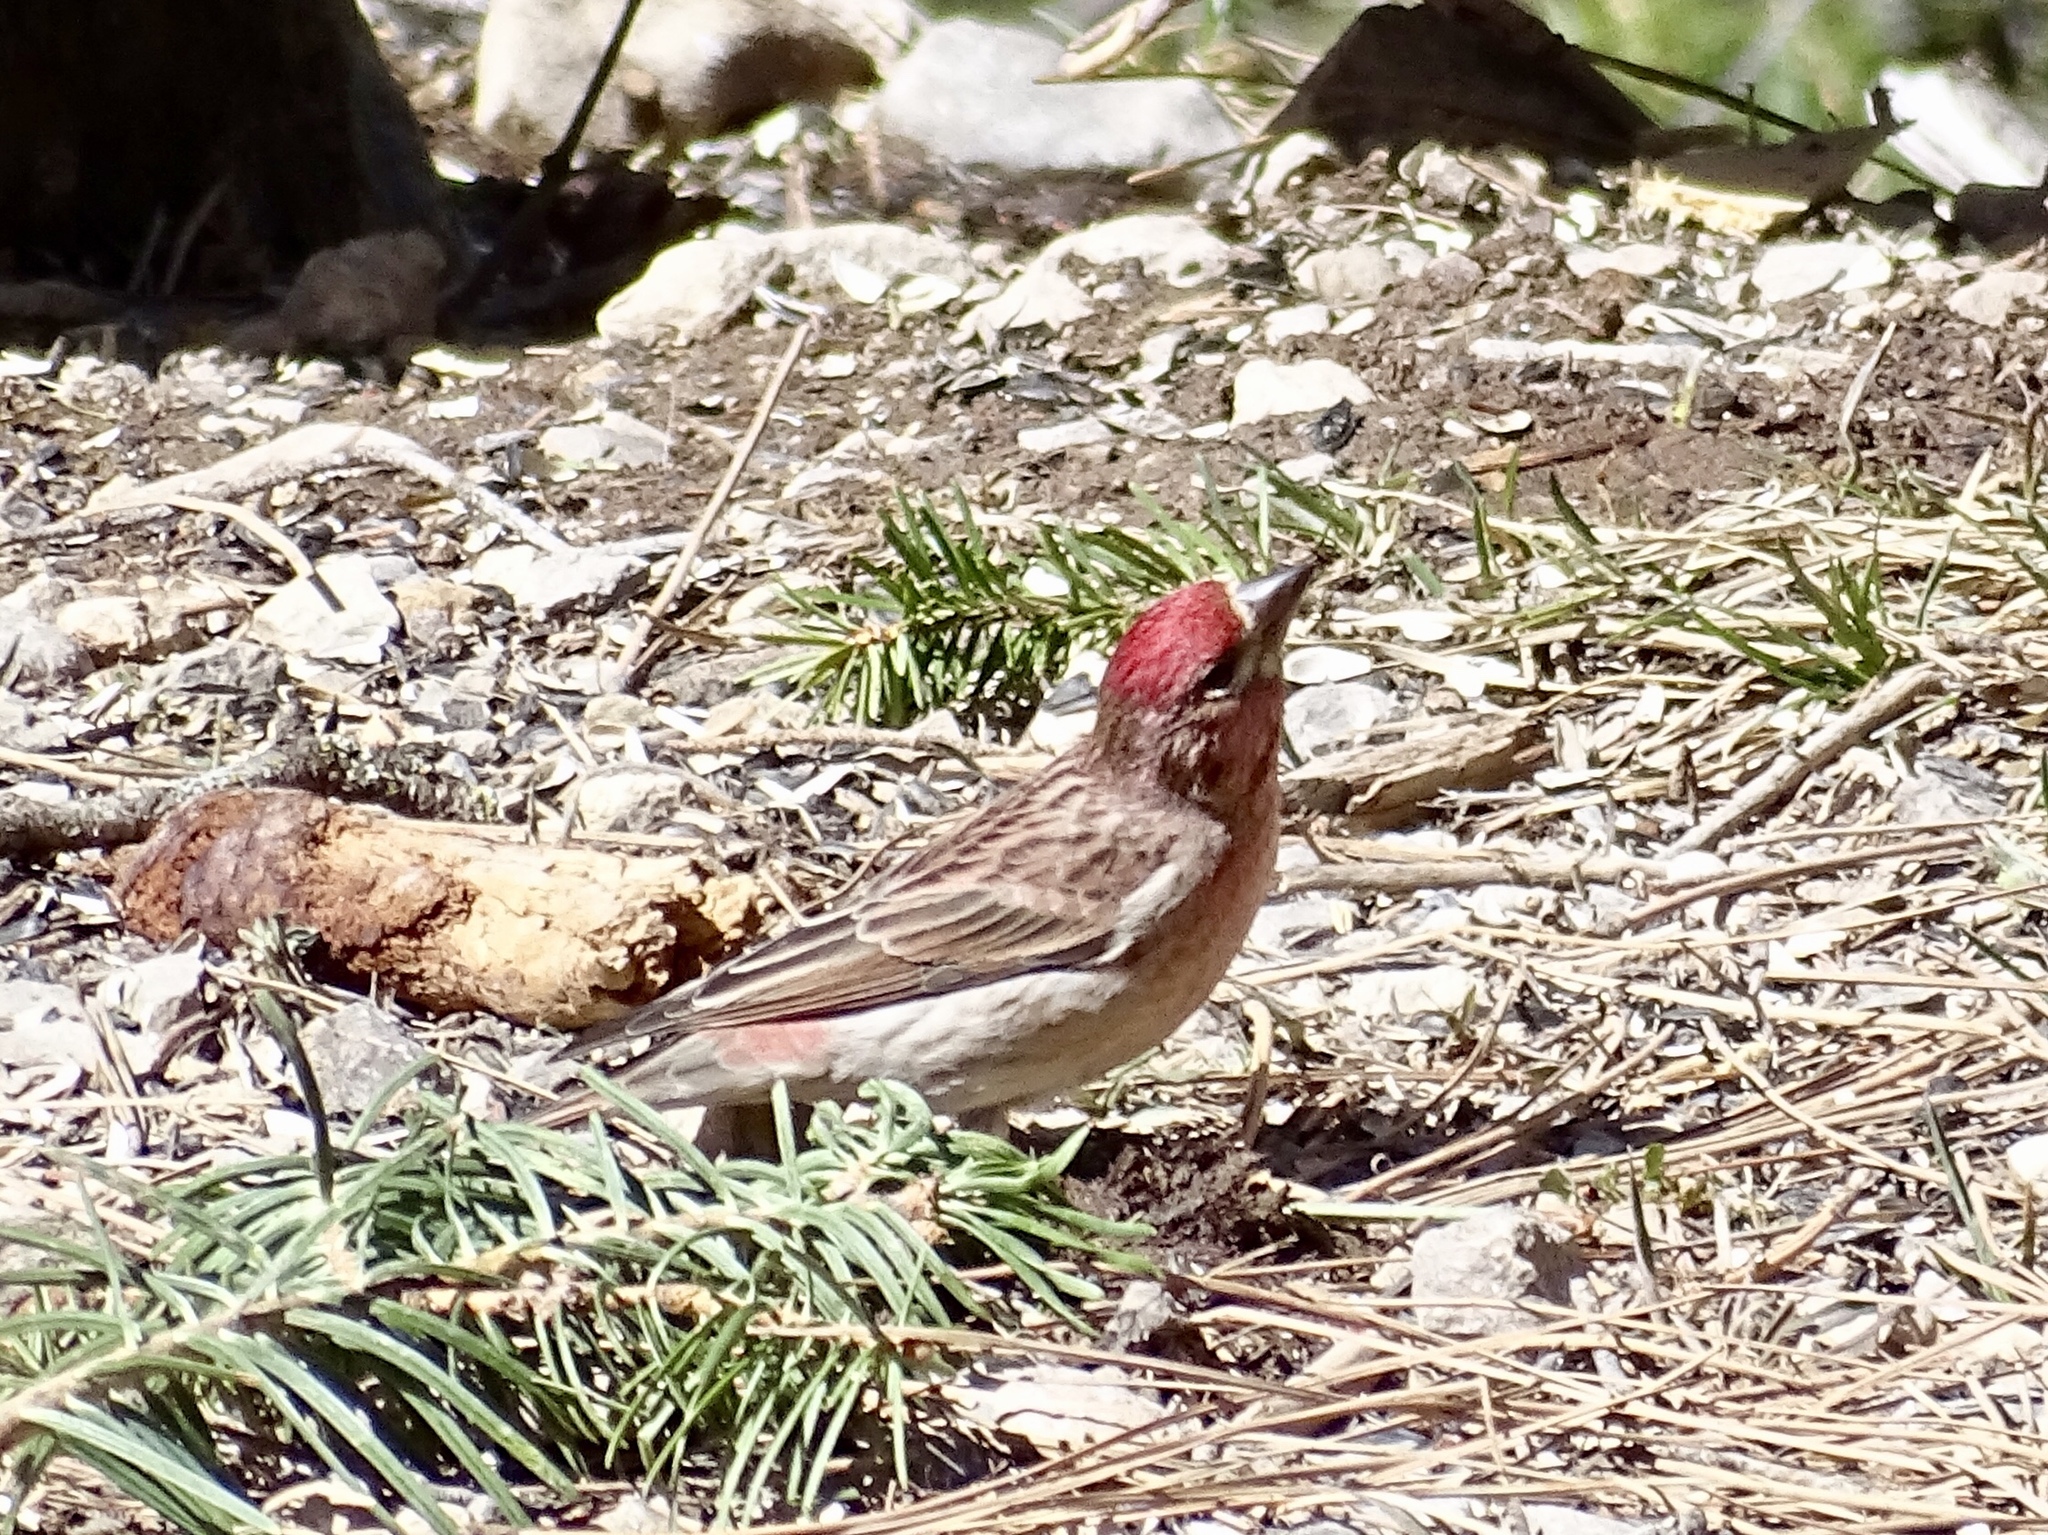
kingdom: Animalia
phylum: Chordata
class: Aves
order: Passeriformes
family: Fringillidae
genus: Haemorhous
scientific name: Haemorhous cassinii
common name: Cassin's finch
